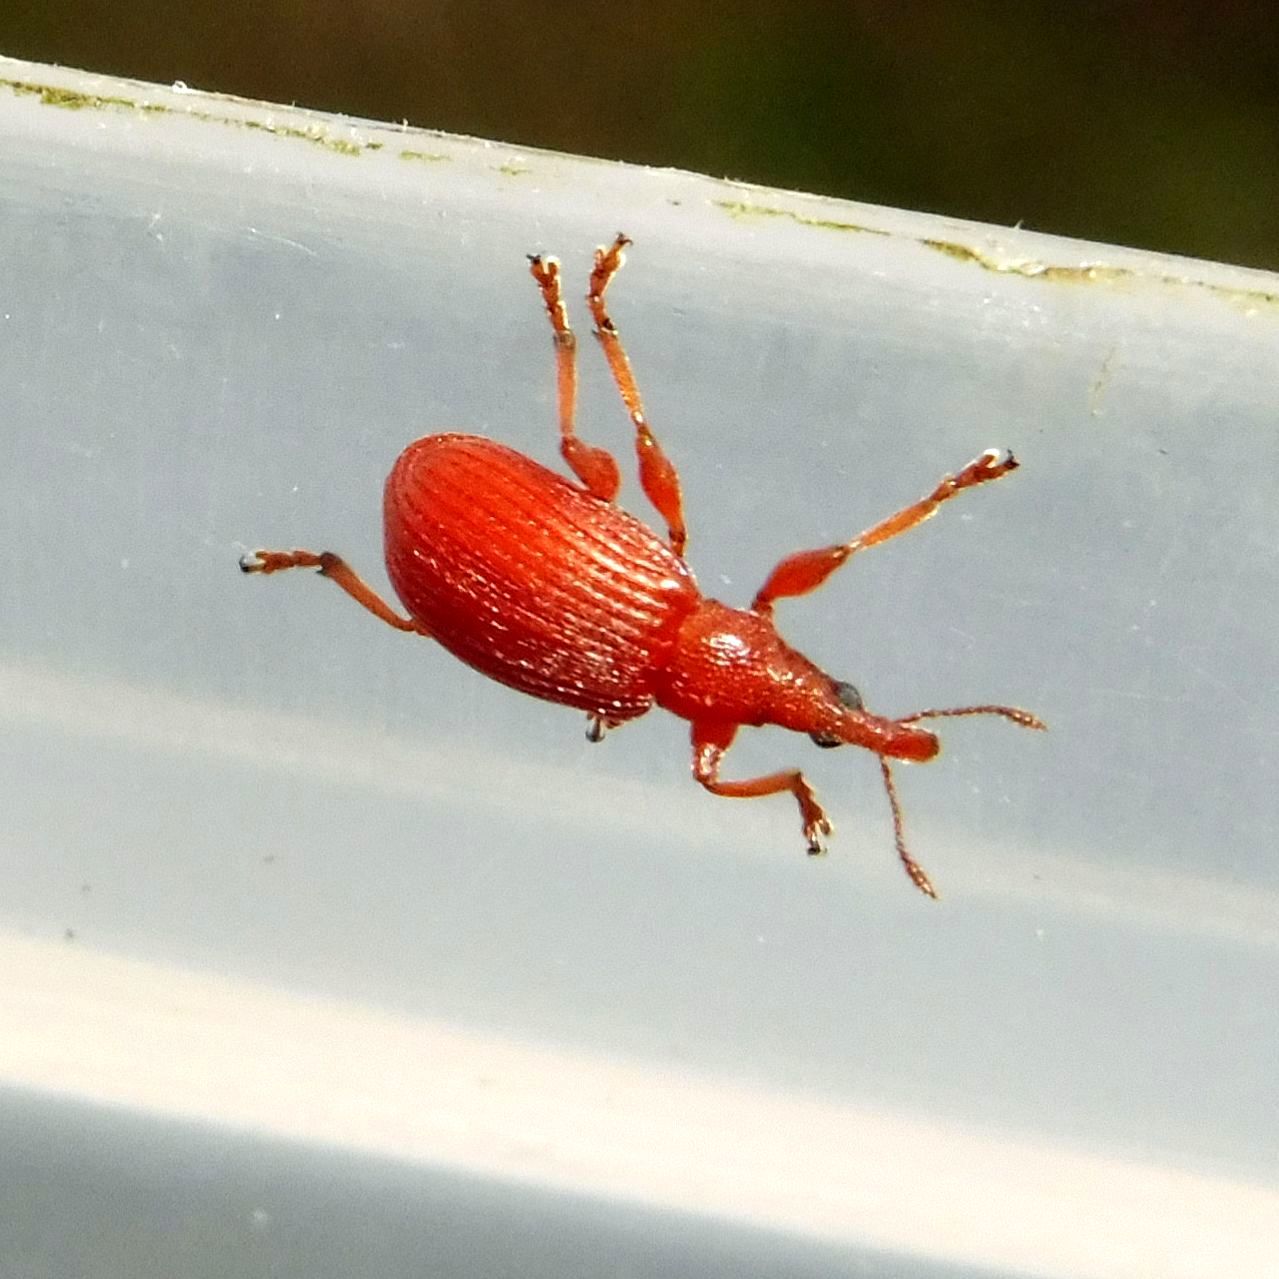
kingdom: Animalia
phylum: Arthropoda
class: Insecta
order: Coleoptera
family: Apionidae
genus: Apion
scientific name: Apion frumentarium
